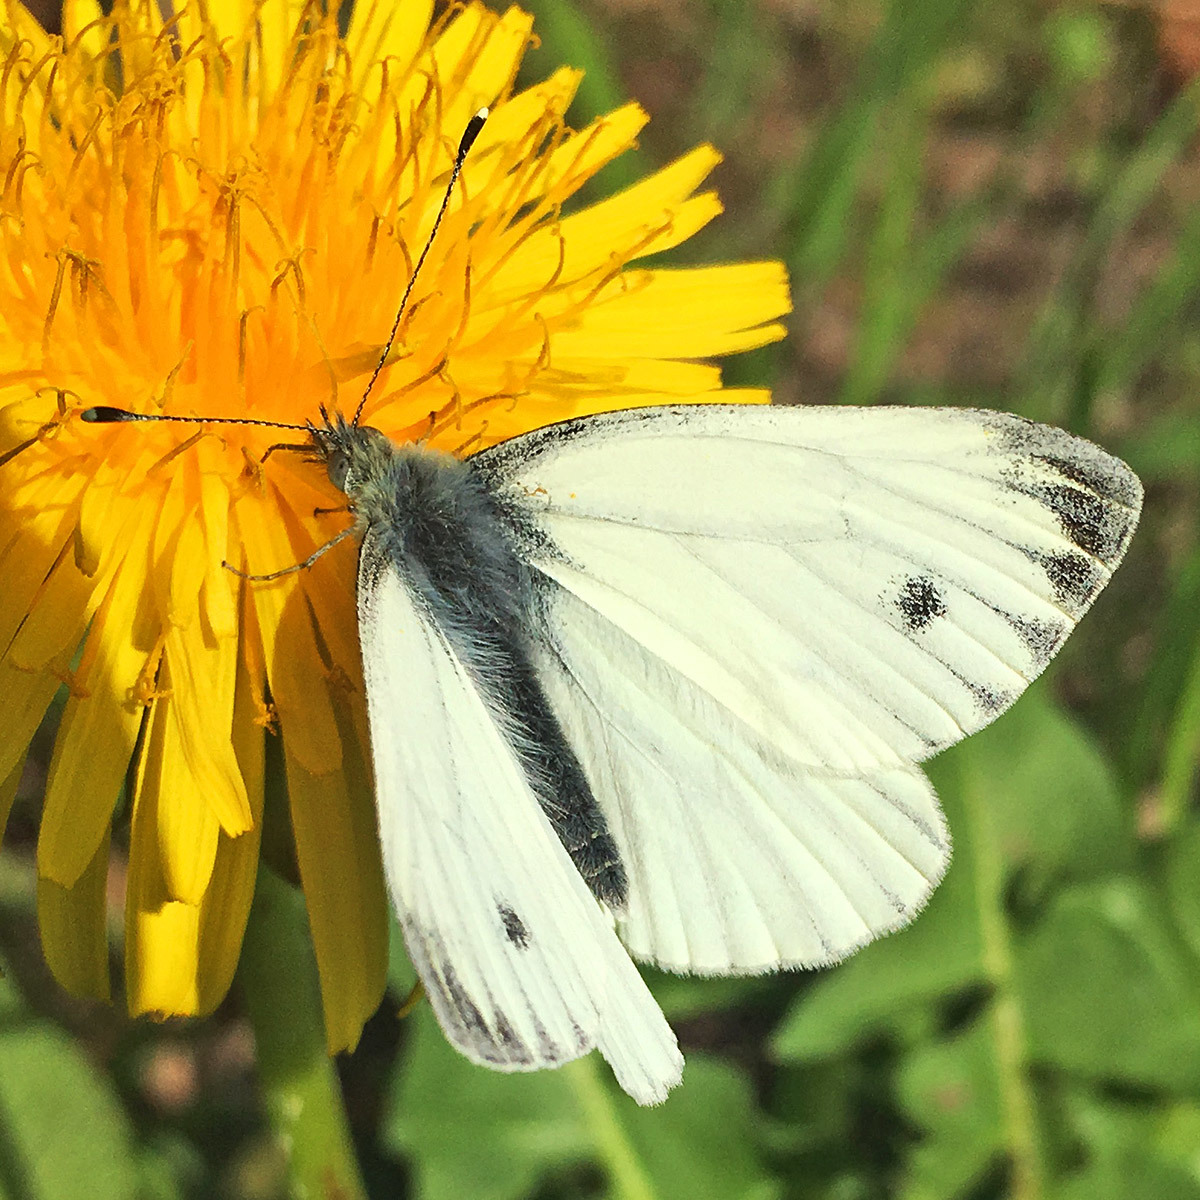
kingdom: Animalia
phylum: Arthropoda
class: Insecta
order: Lepidoptera
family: Pieridae
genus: Pieris
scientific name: Pieris napi
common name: Green-veined white
